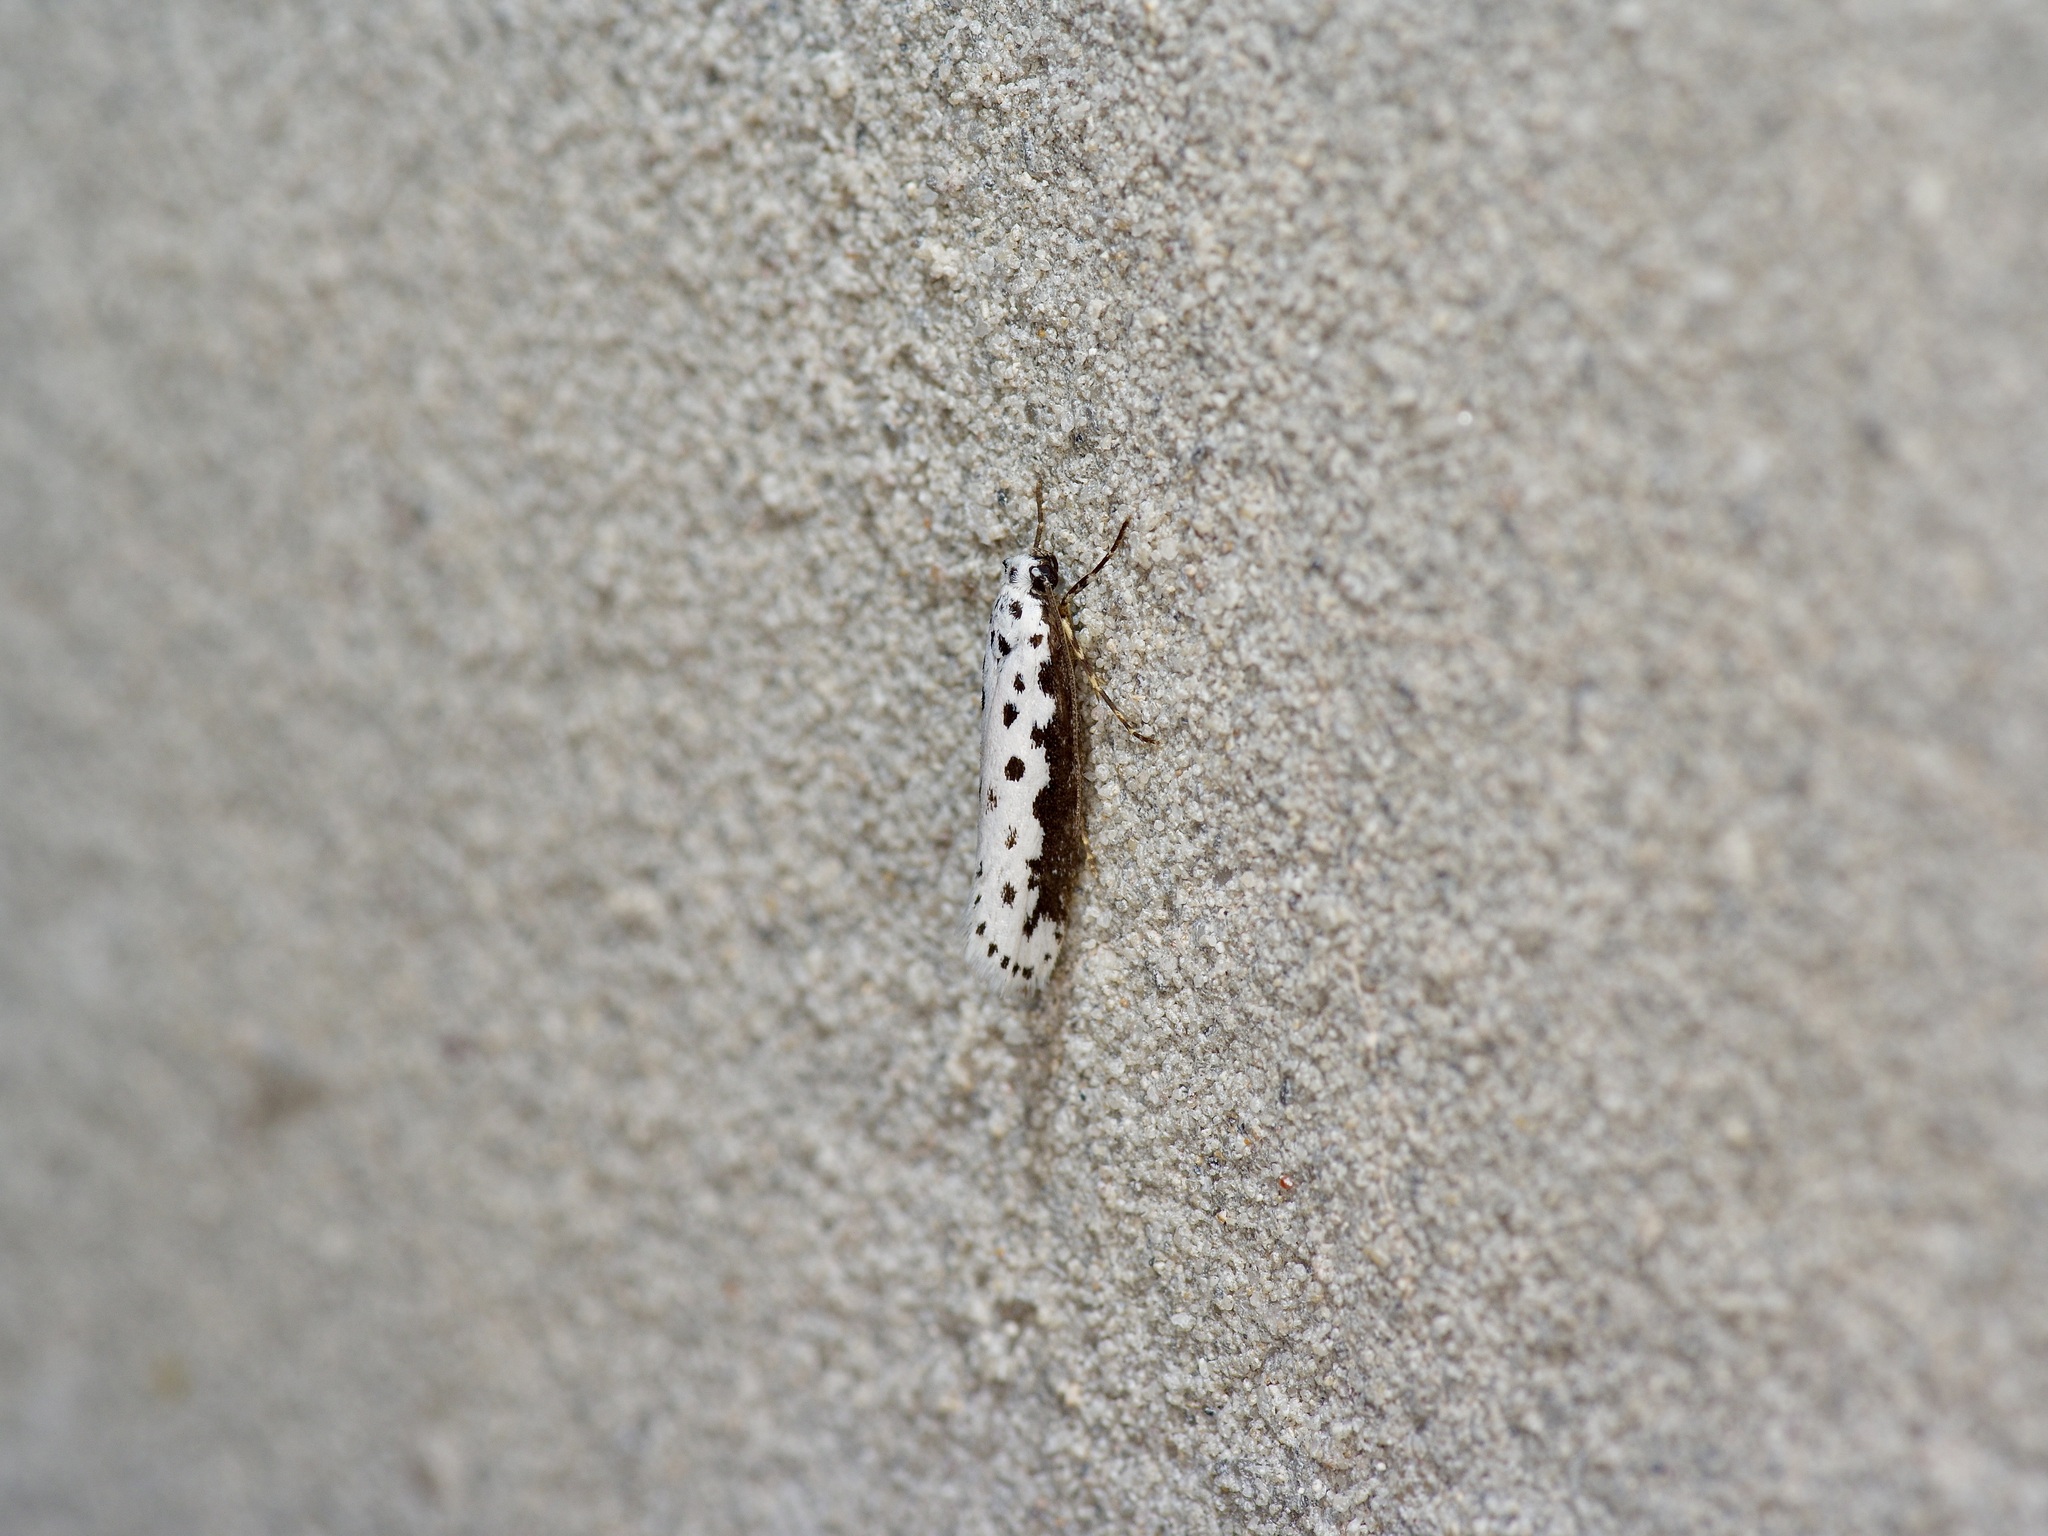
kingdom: Animalia
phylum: Arthropoda
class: Insecta
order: Lepidoptera
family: Ethmiidae
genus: Ethmia
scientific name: Ethmia hagenella
